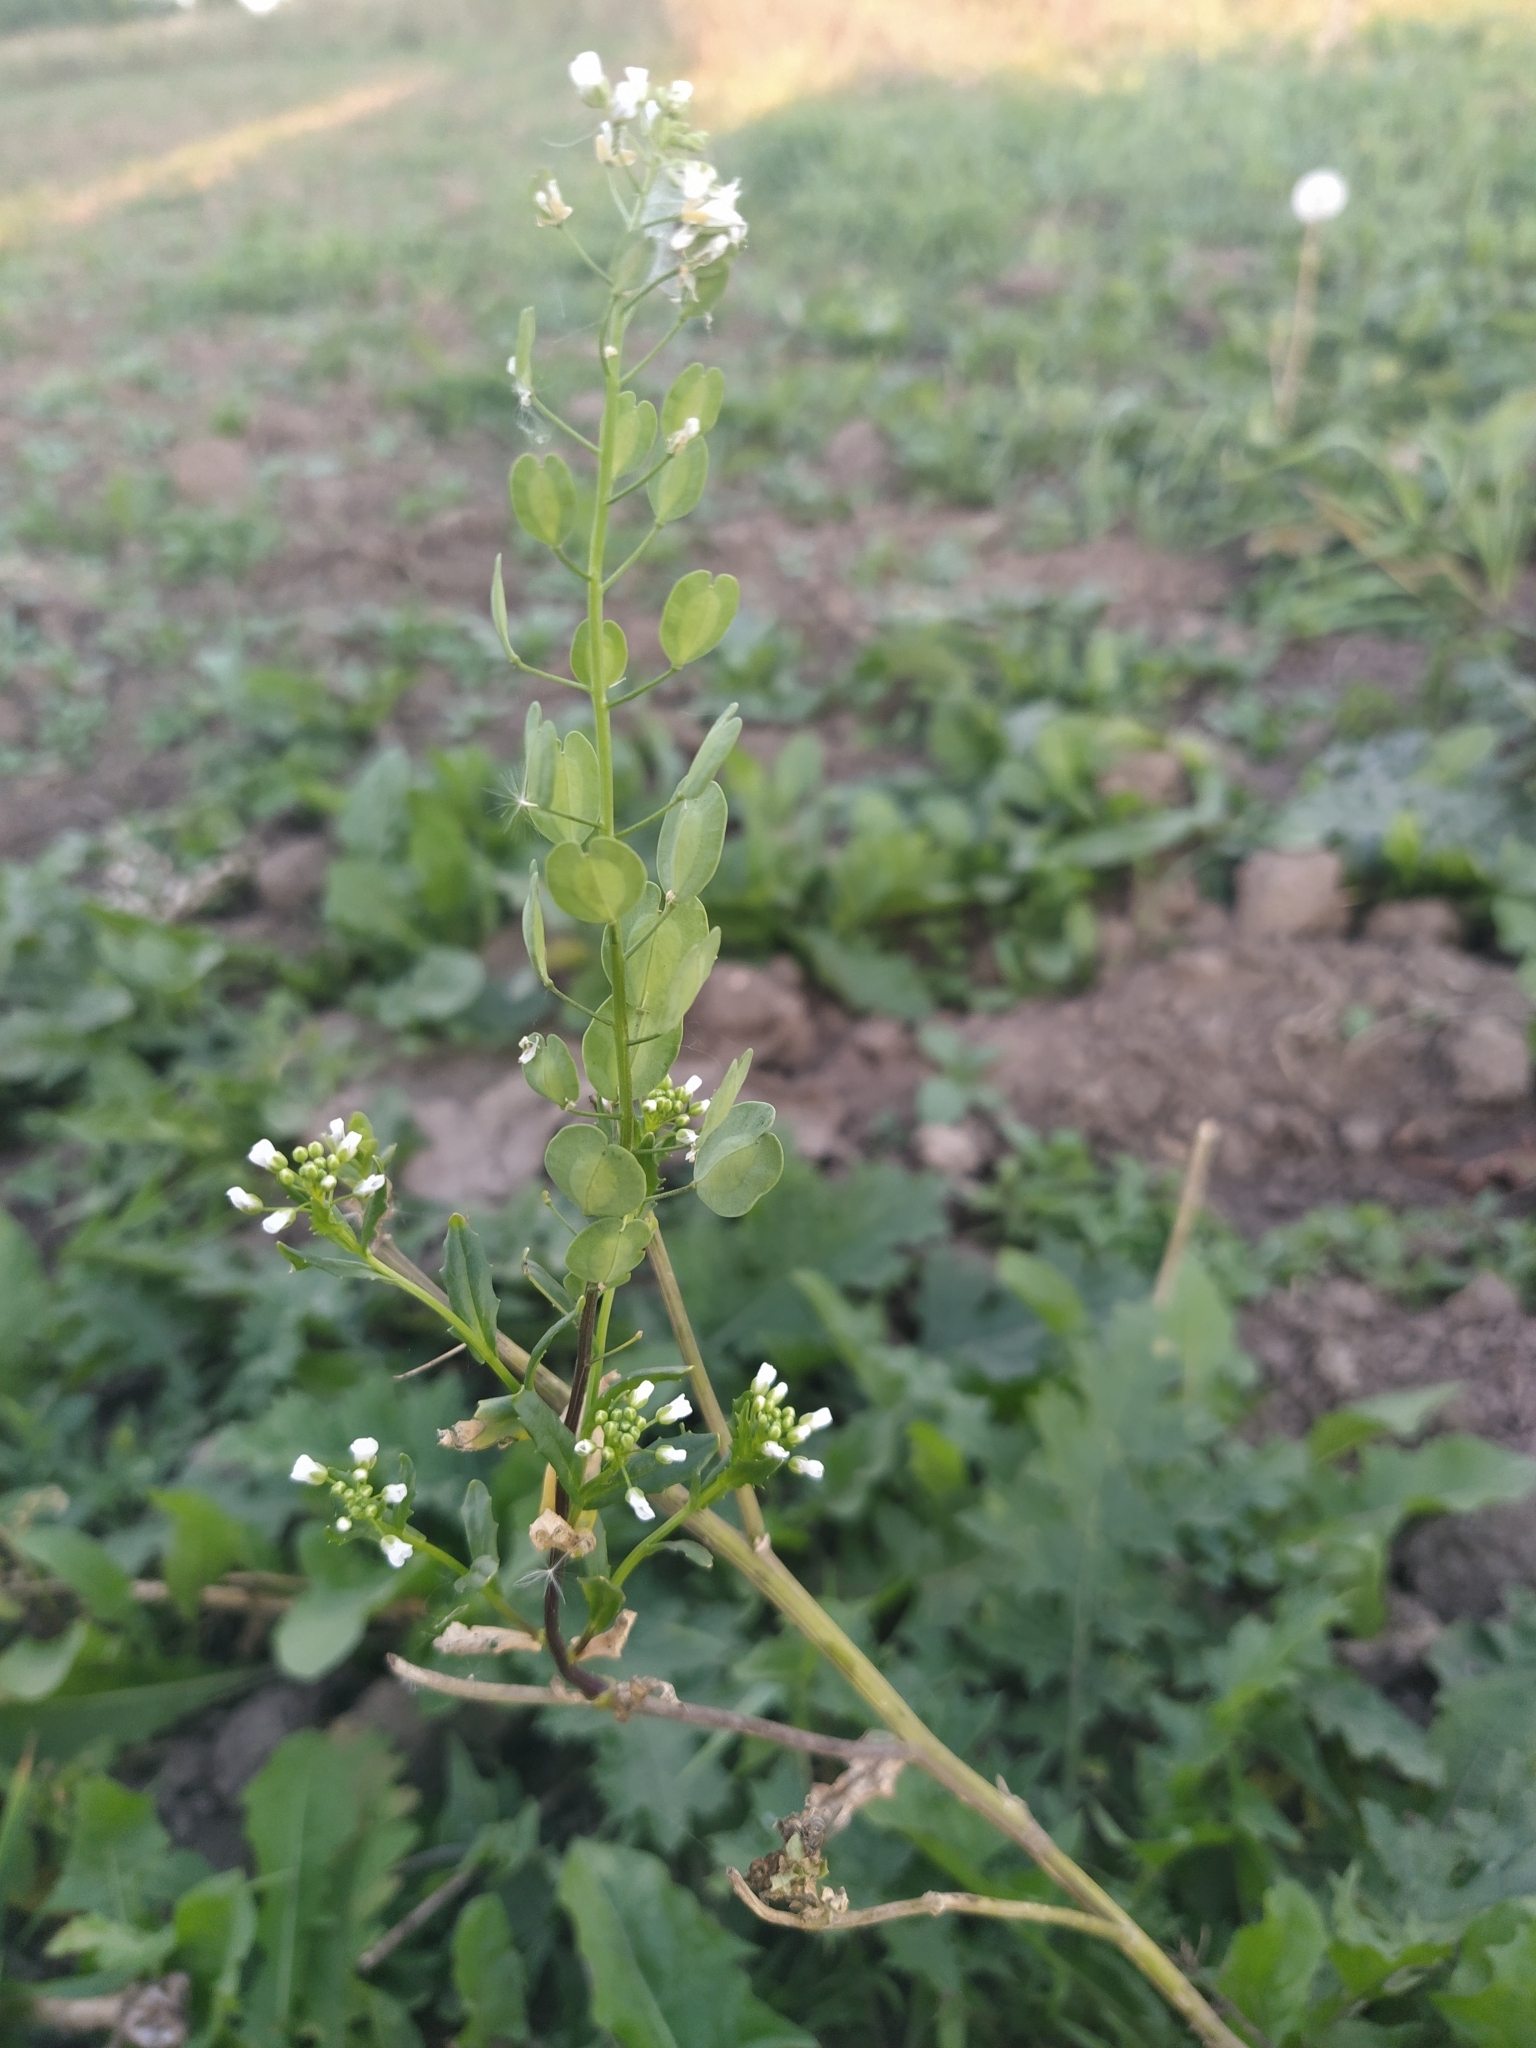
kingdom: Plantae
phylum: Tracheophyta
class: Magnoliopsida
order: Brassicales
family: Brassicaceae
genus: Thlaspi
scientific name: Thlaspi arvense
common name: Field pennycress
